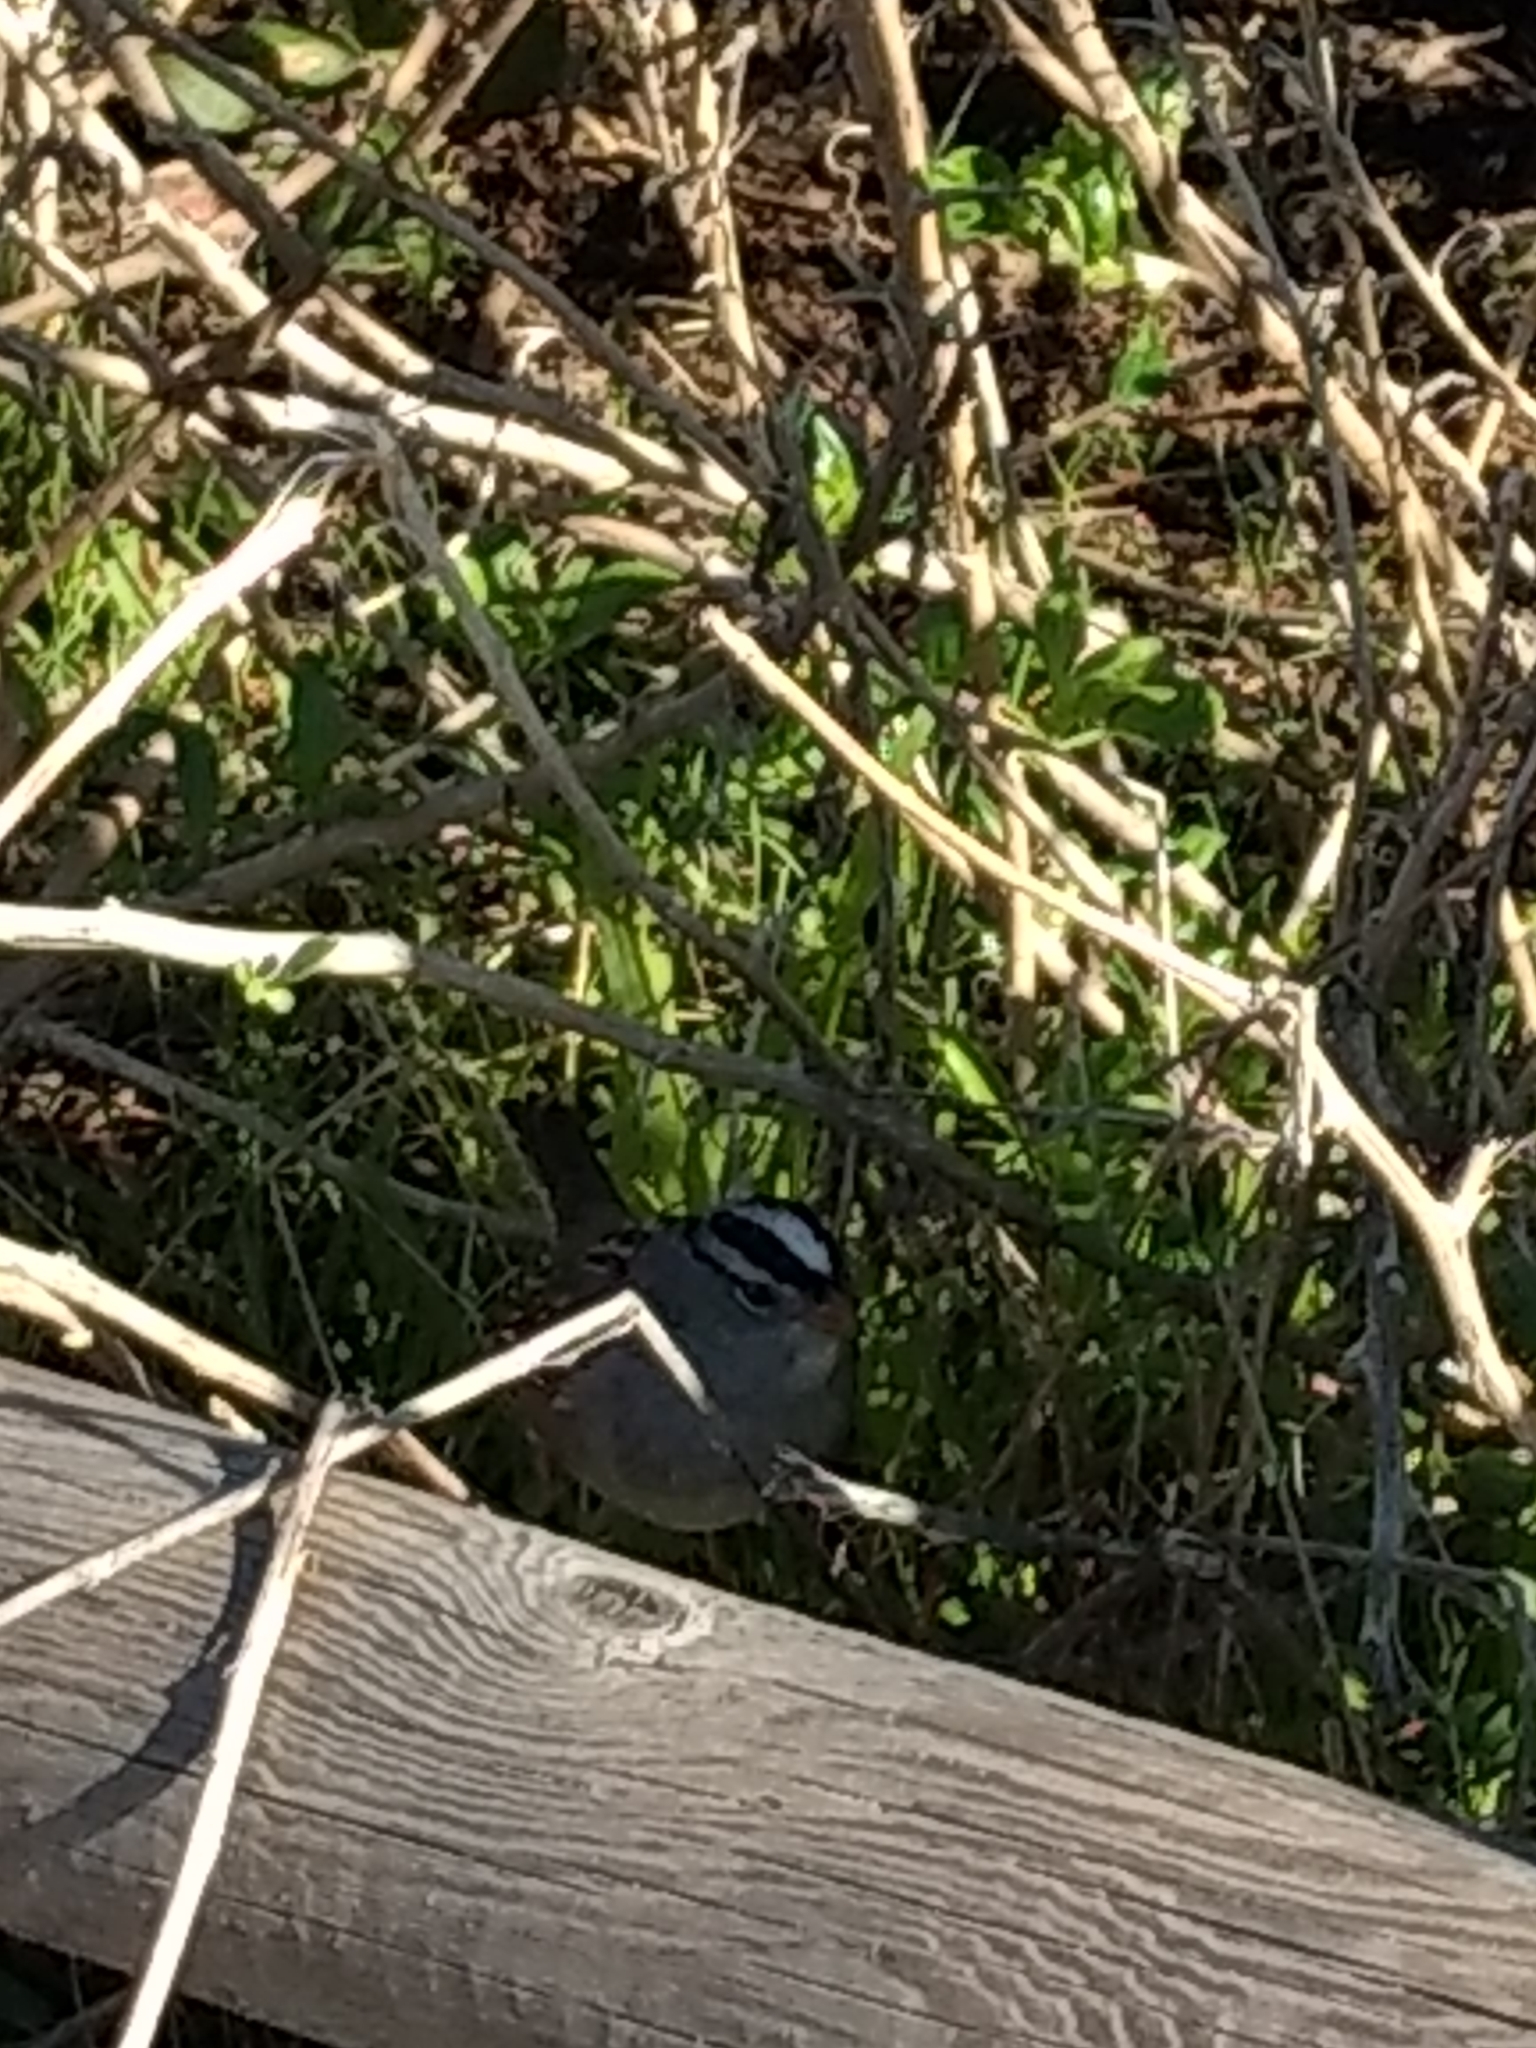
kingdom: Animalia
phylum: Chordata
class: Aves
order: Passeriformes
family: Passerellidae
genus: Zonotrichia
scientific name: Zonotrichia leucophrys
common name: White-crowned sparrow
